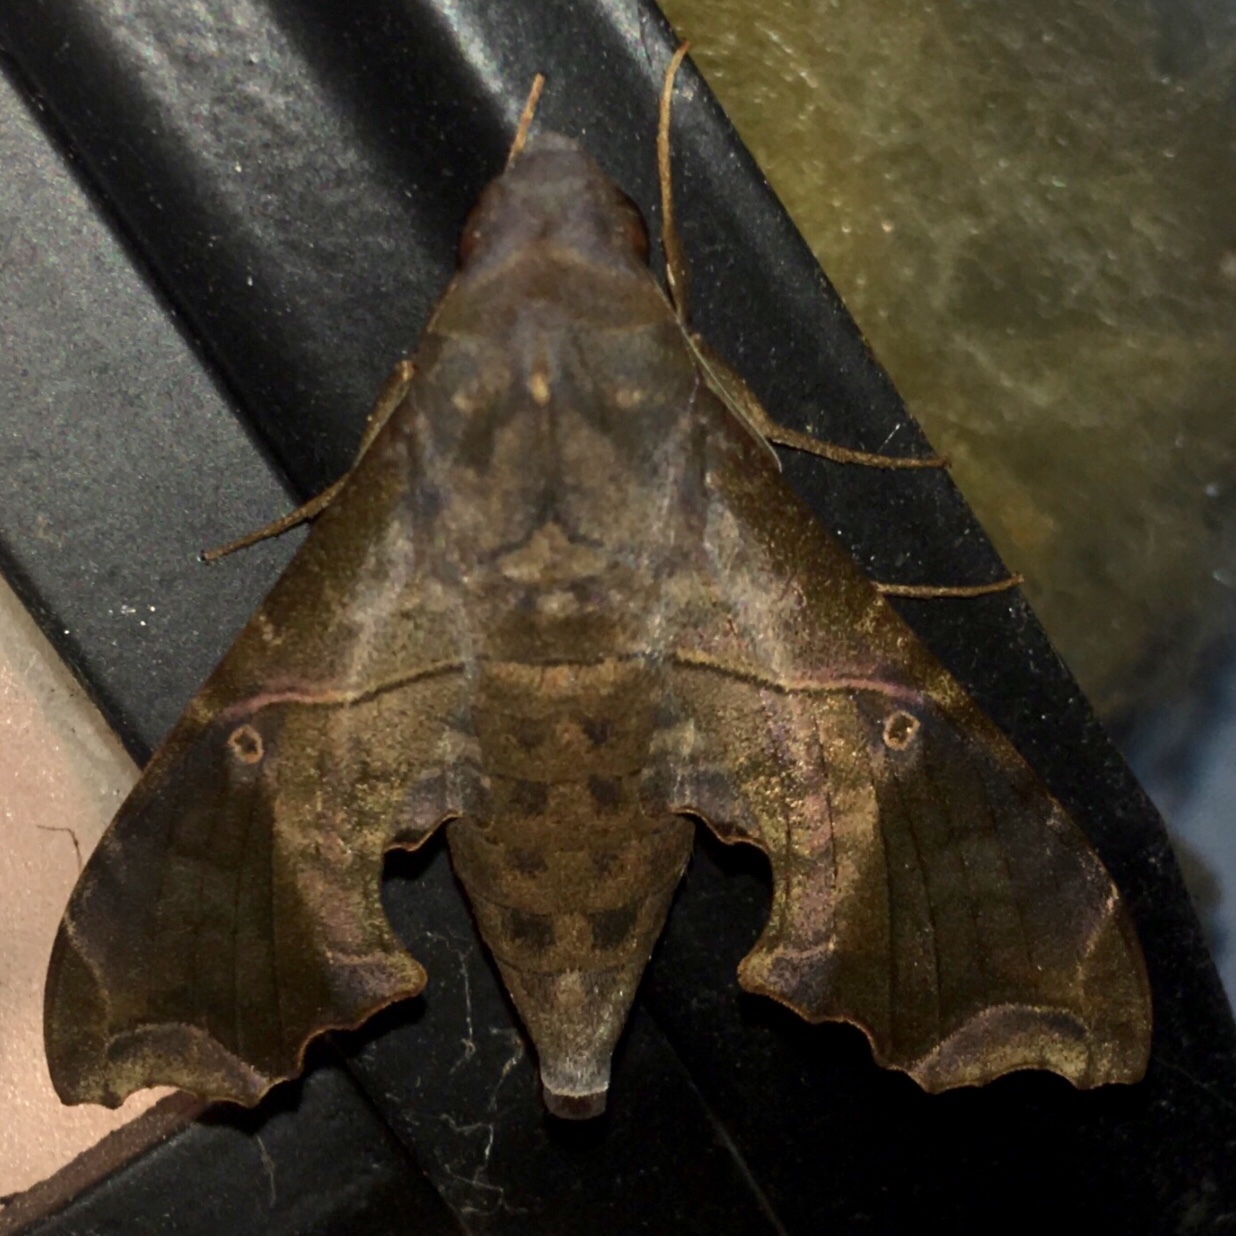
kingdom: Animalia
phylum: Arthropoda
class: Insecta
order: Lepidoptera
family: Sphingidae
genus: Enyo
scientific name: Enyo lugubris
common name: Mournful sphinx
